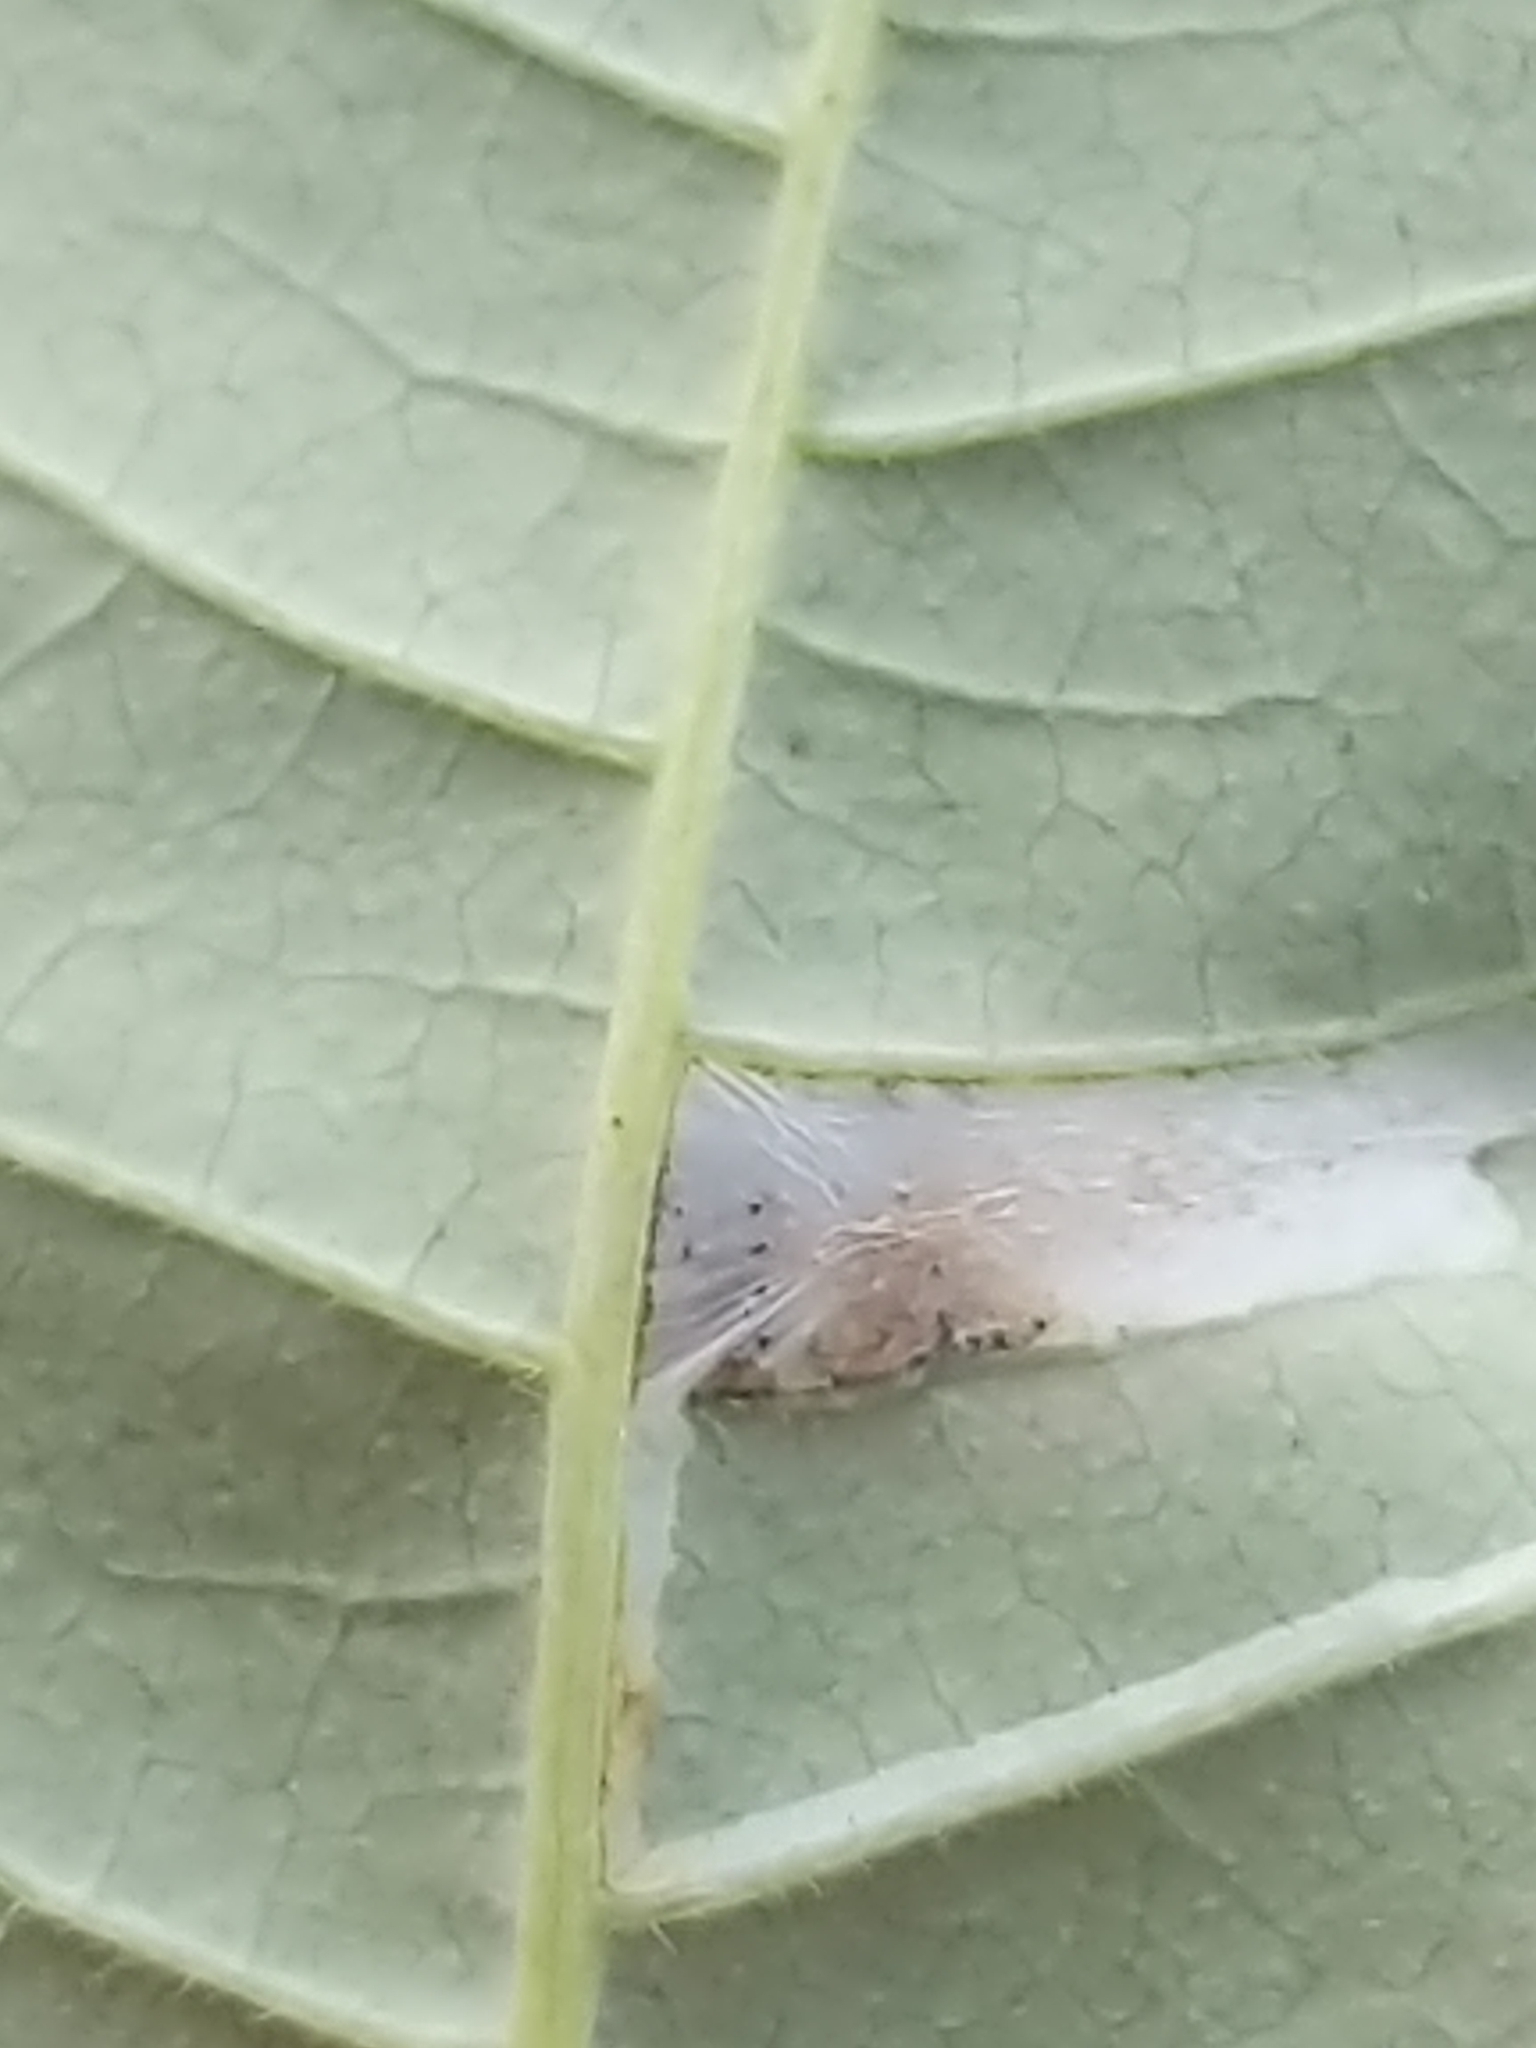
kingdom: Animalia
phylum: Arthropoda
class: Insecta
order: Lepidoptera
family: Gracillariidae
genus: Caloptilia
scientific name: Caloptilia rhoifoliella
